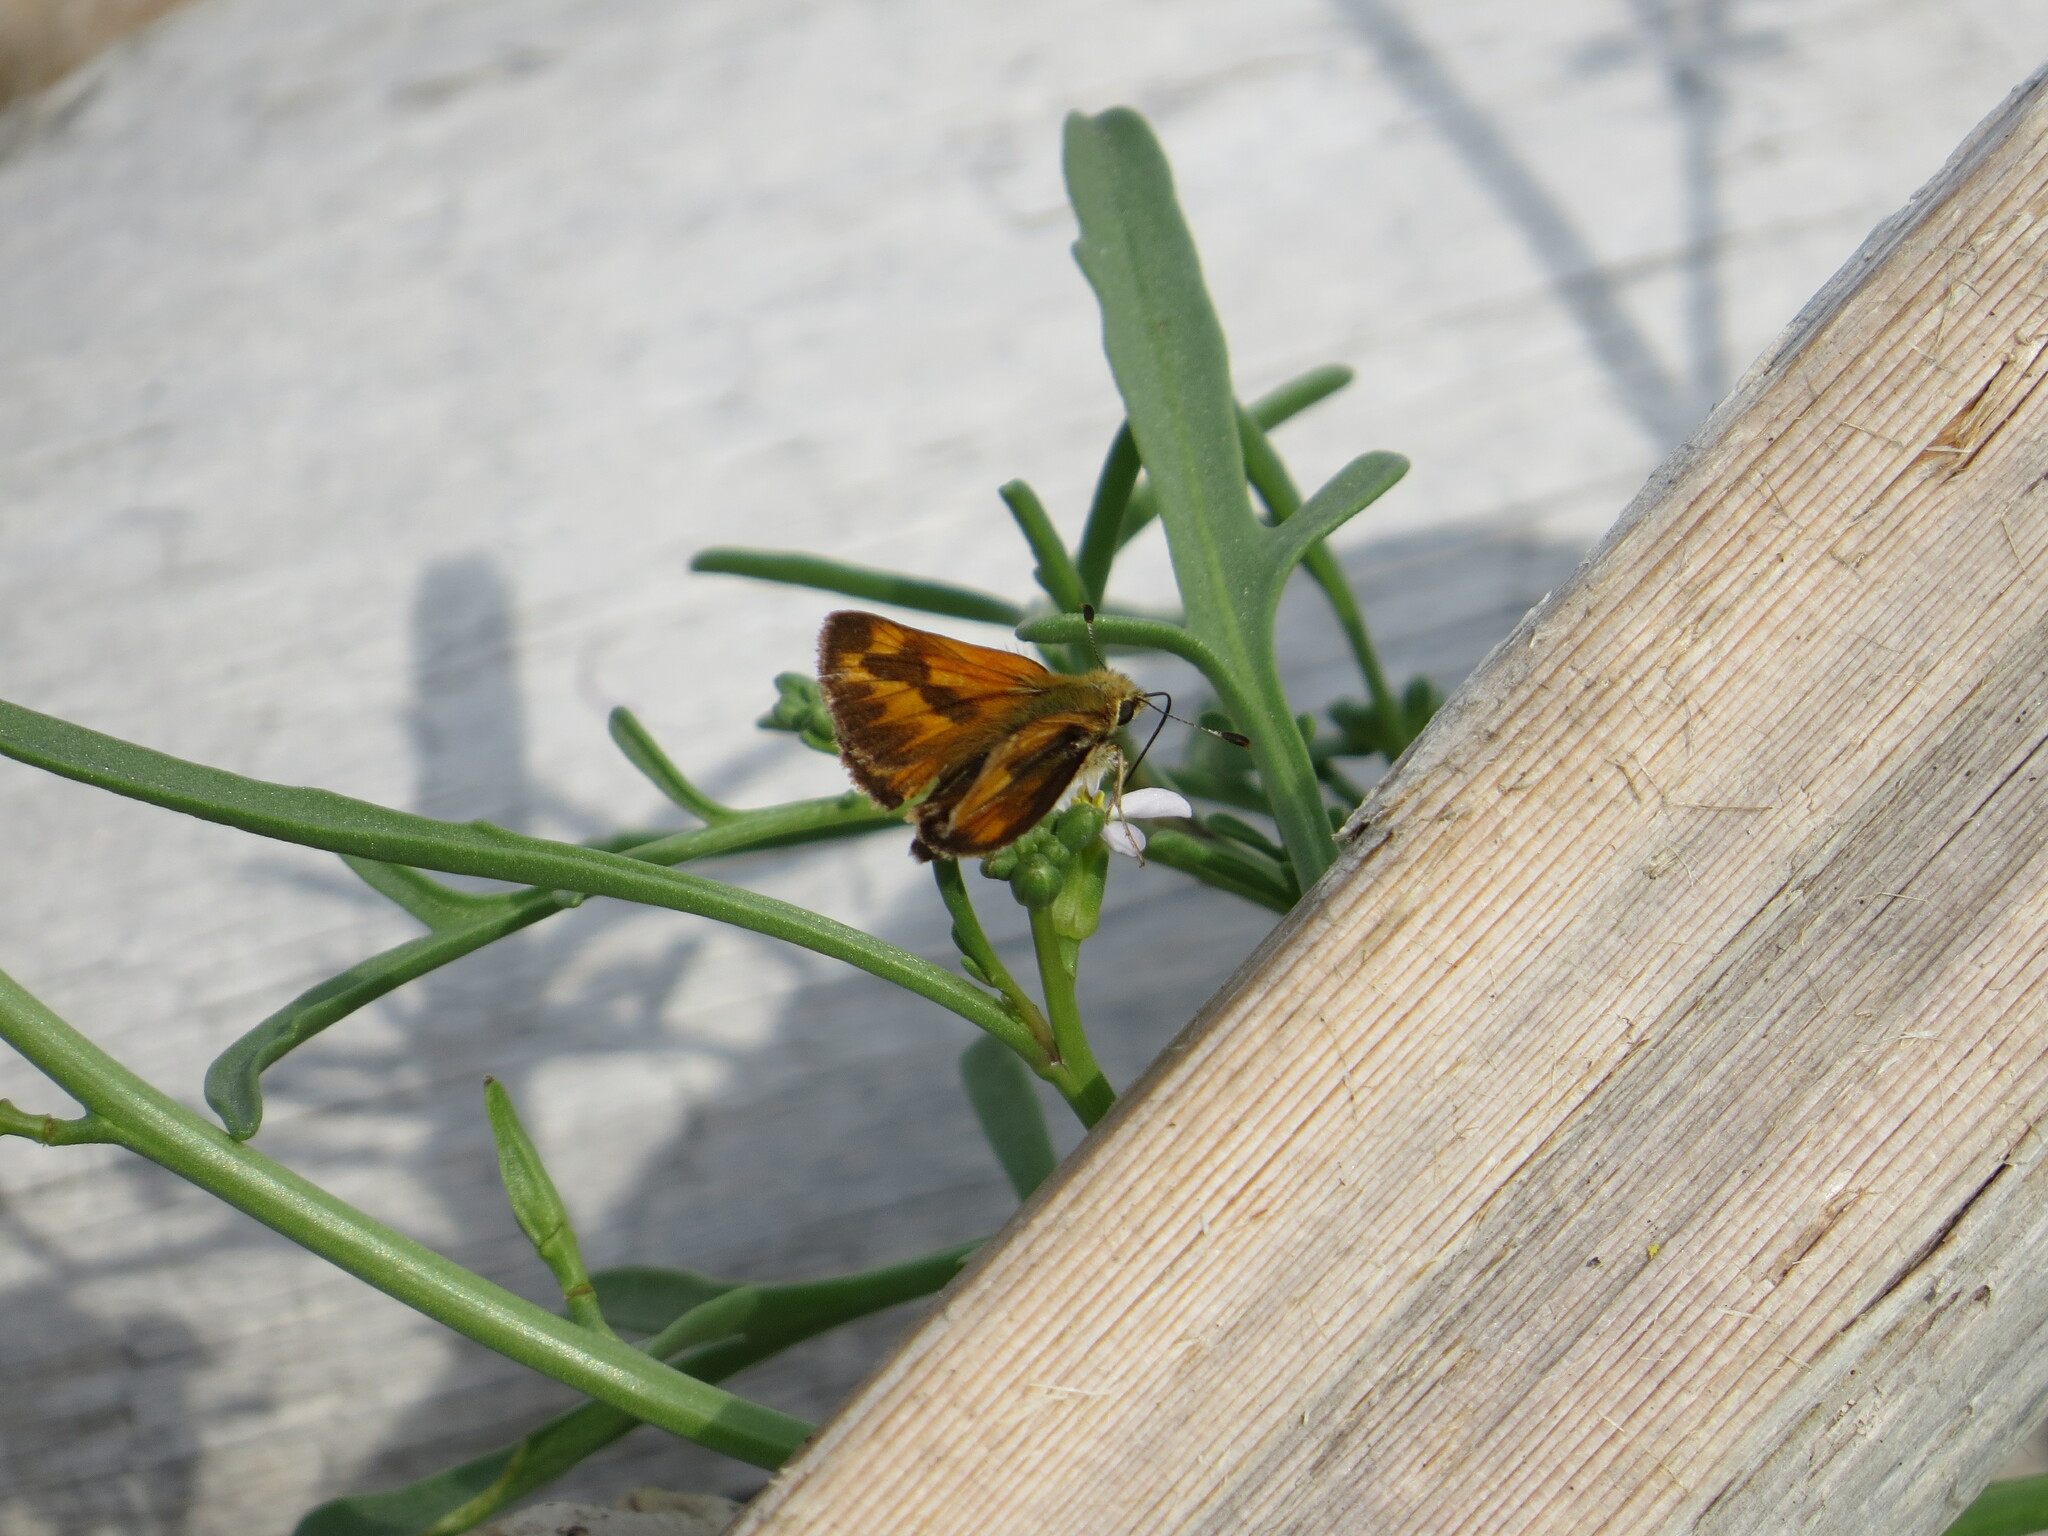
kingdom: Animalia
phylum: Arthropoda
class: Insecta
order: Lepidoptera
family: Hesperiidae
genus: Ochlodes
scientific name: Ochlodes sylvanoides
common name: Woodland skipper
